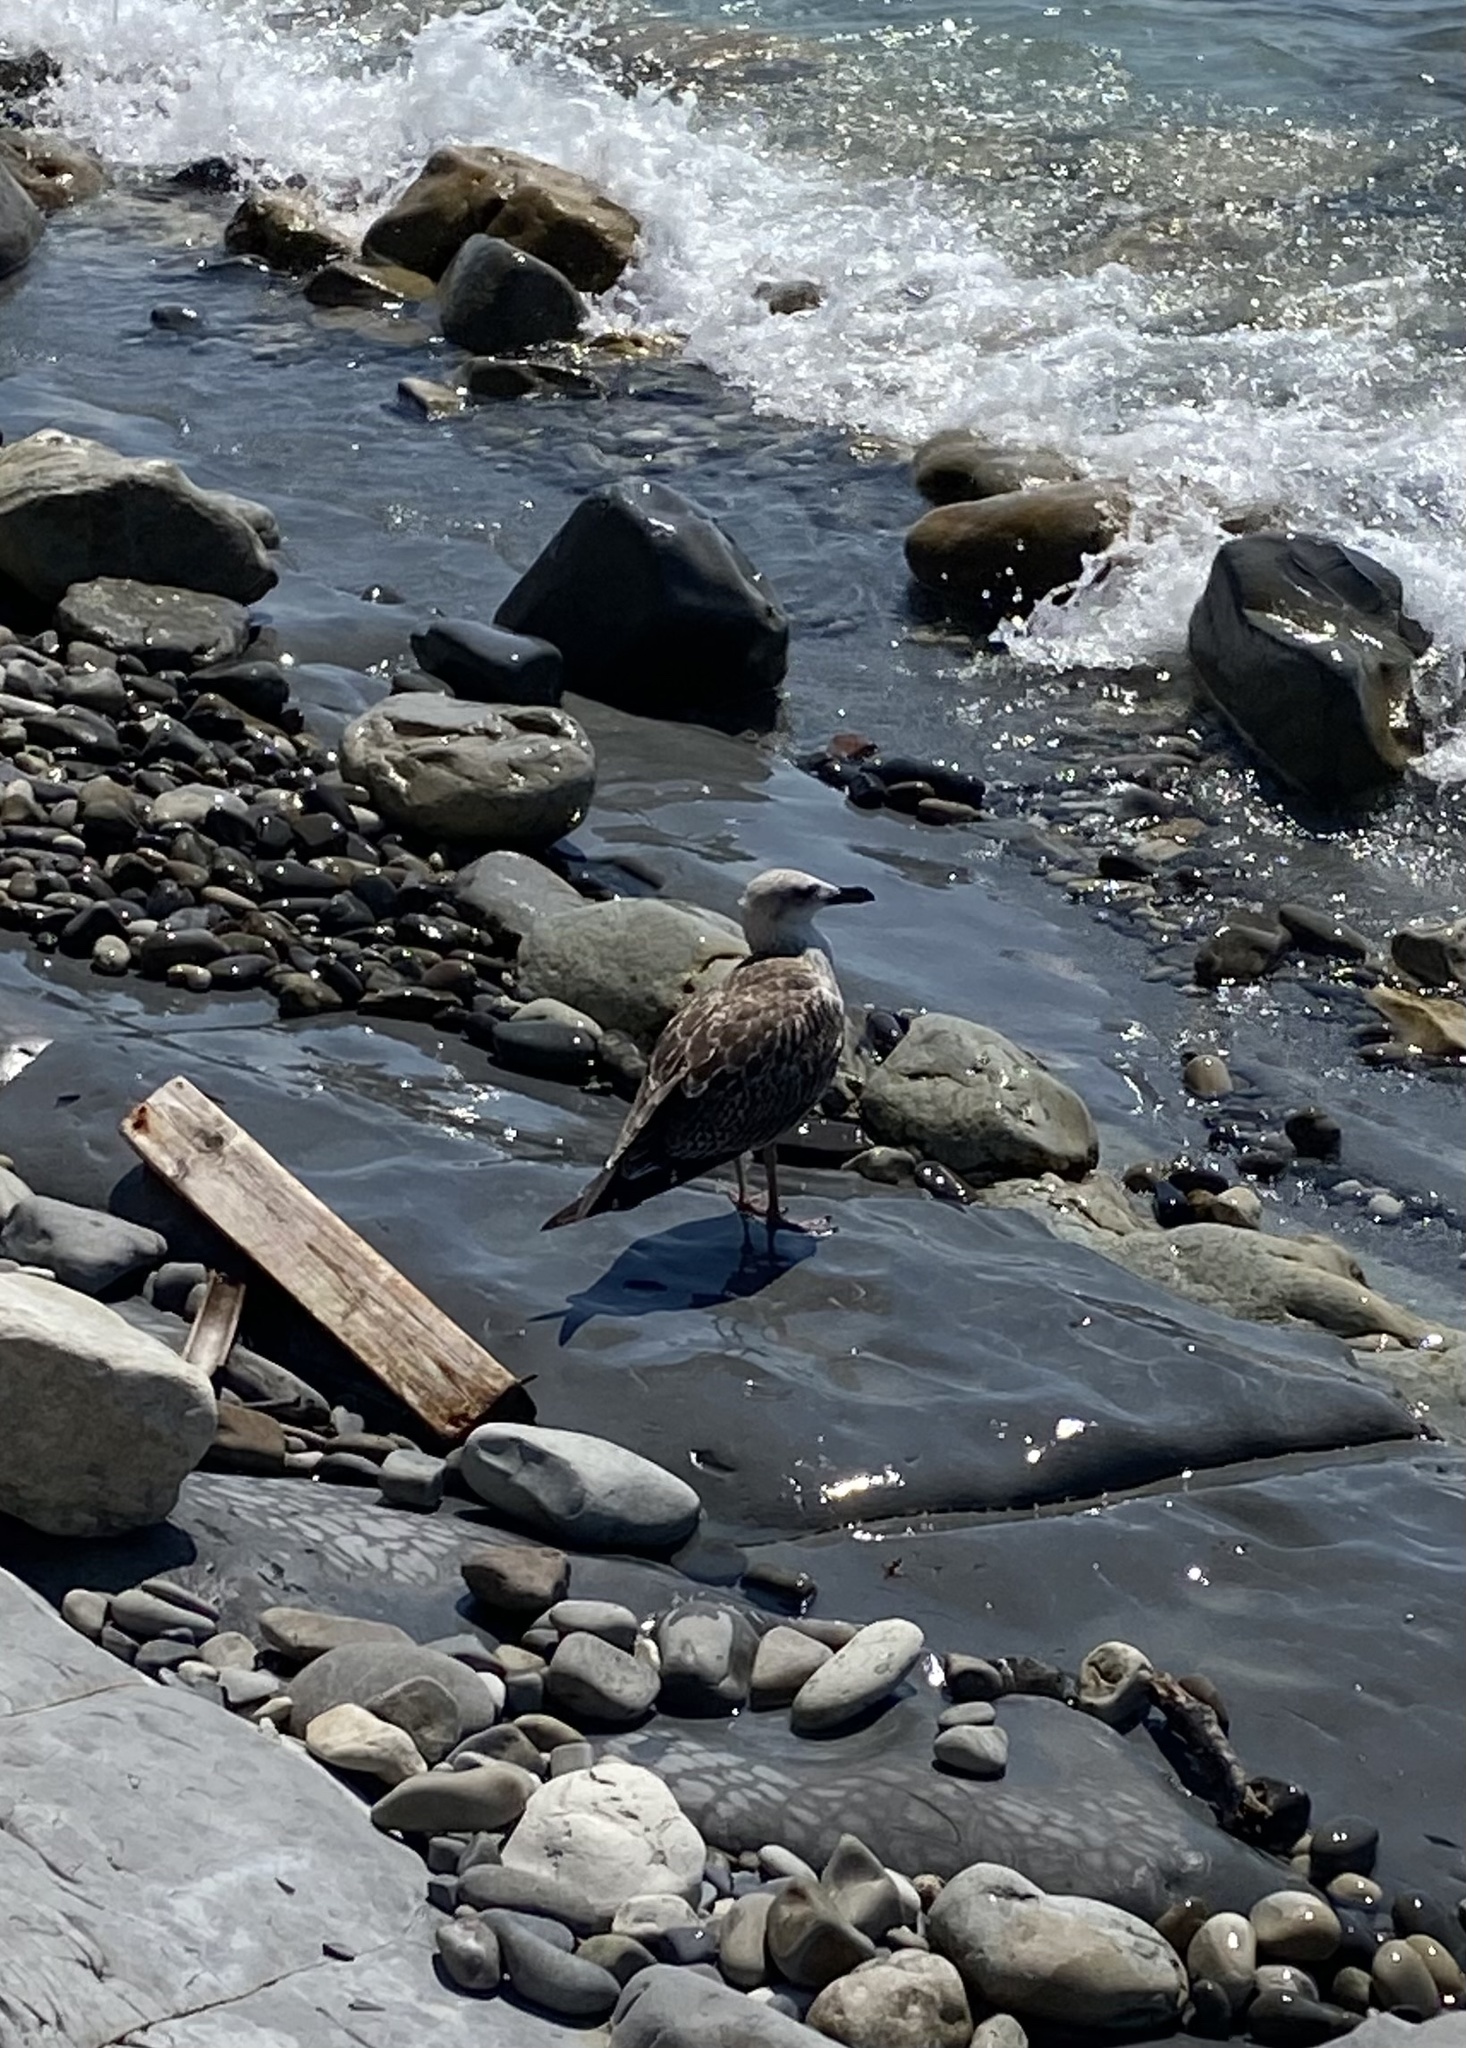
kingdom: Animalia
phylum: Chordata
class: Aves
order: Charadriiformes
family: Laridae
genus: Larus
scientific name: Larus michahellis
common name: Yellow-legged gull
